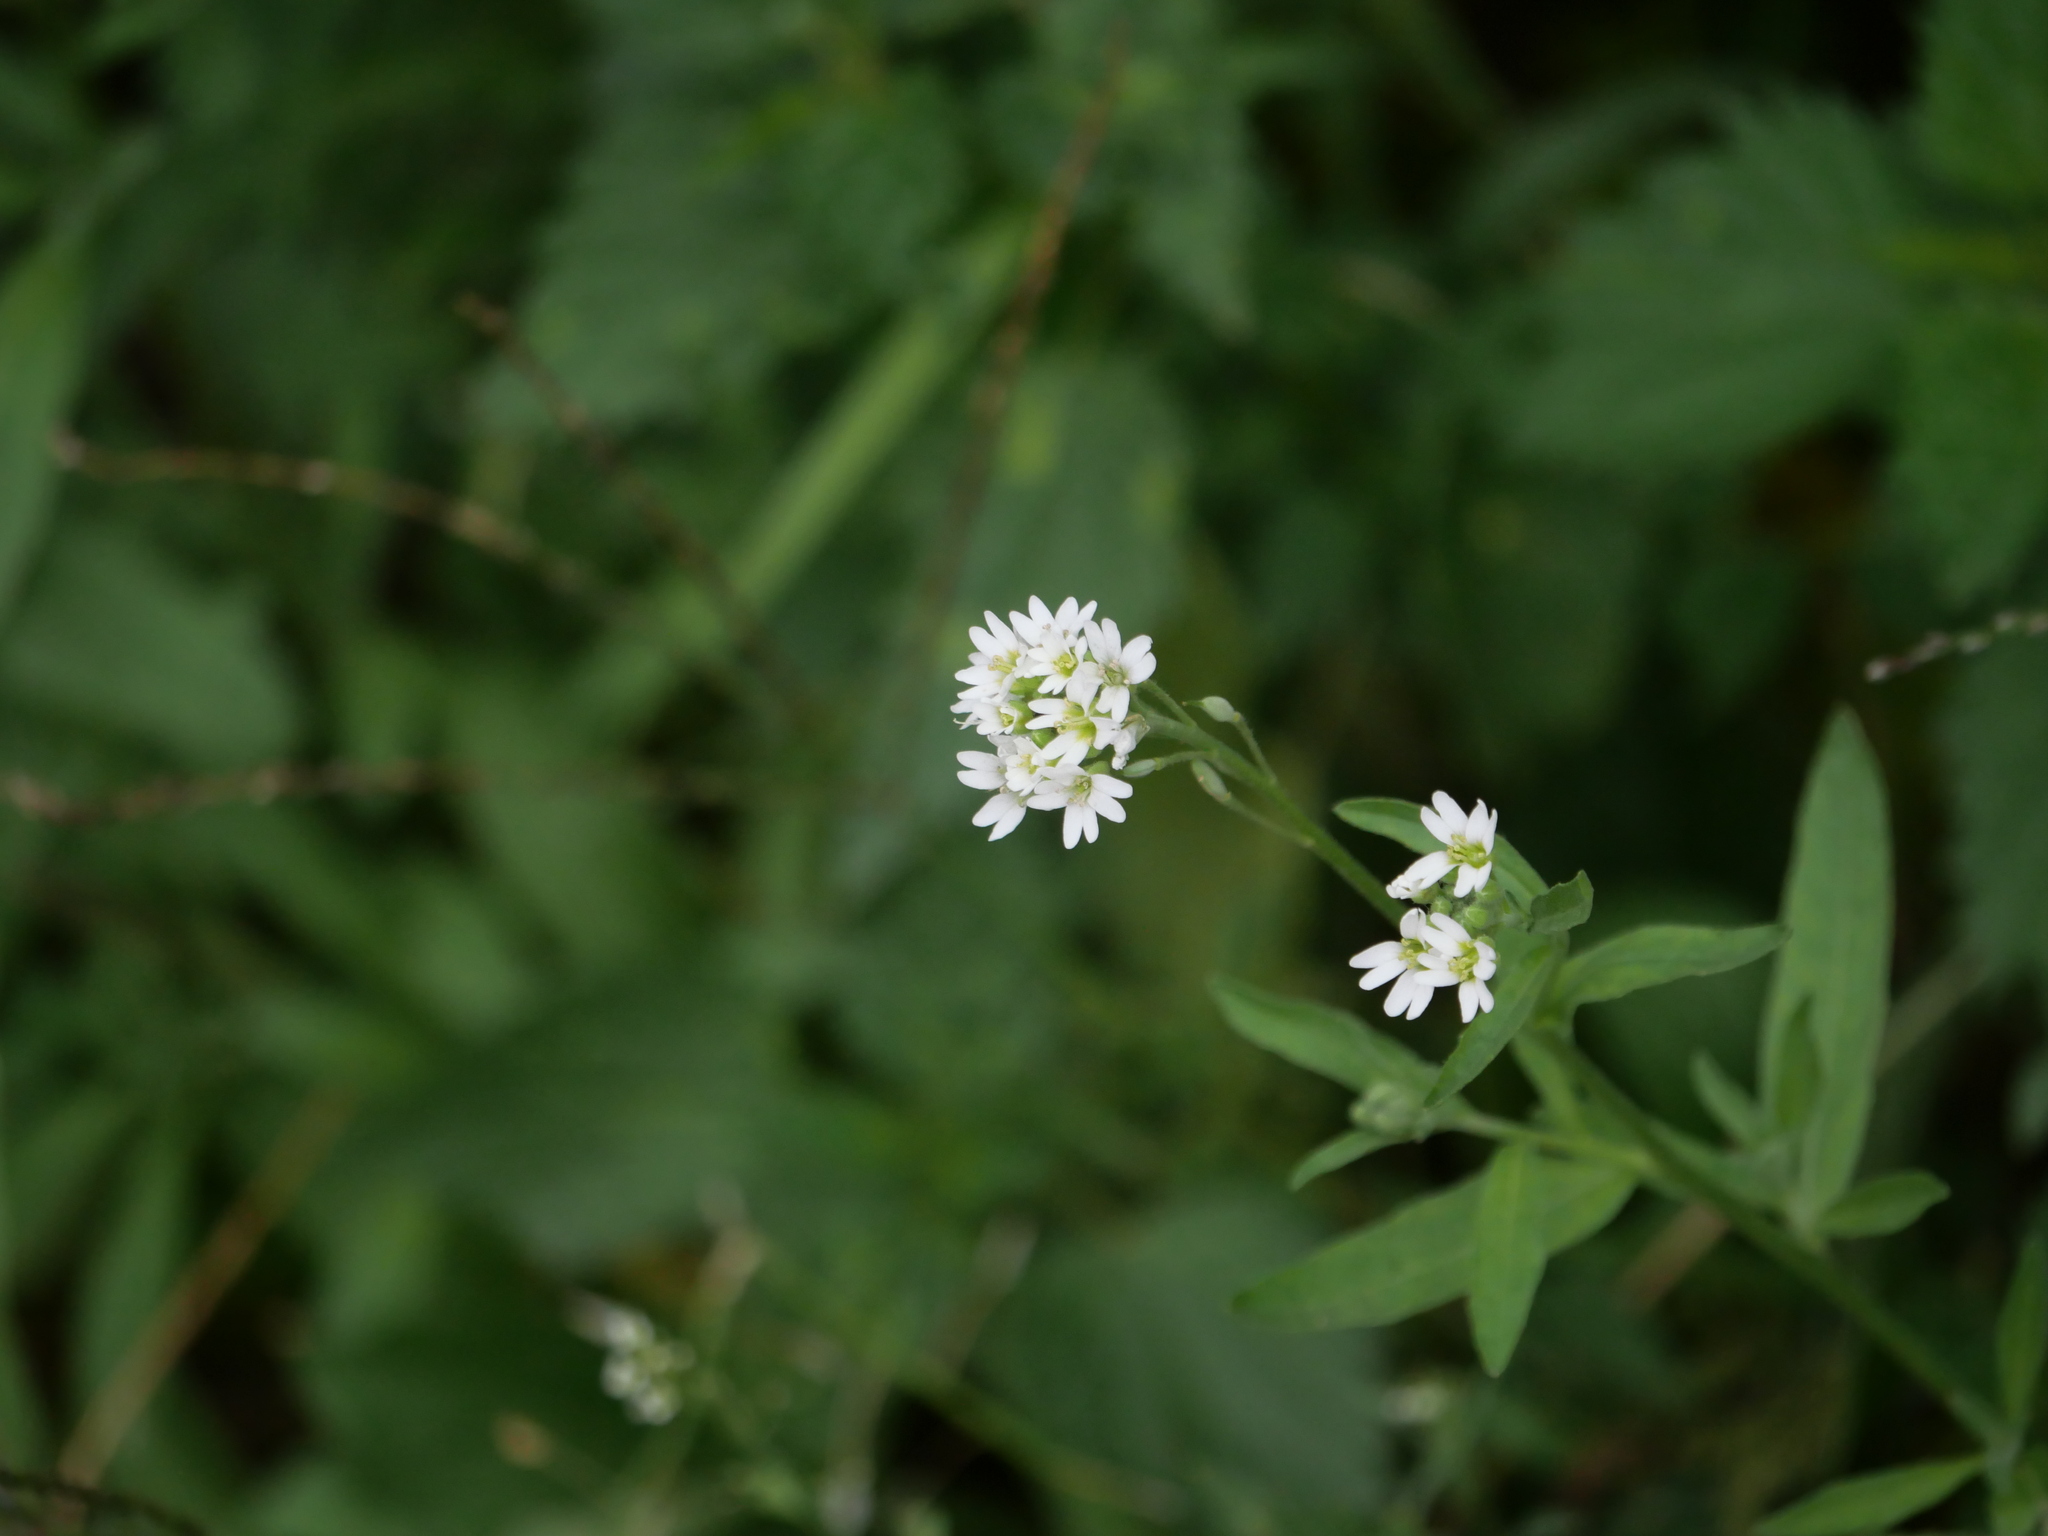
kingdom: Plantae
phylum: Tracheophyta
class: Magnoliopsida
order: Brassicales
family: Brassicaceae
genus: Berteroa
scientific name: Berteroa incana
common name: Hoary alison
